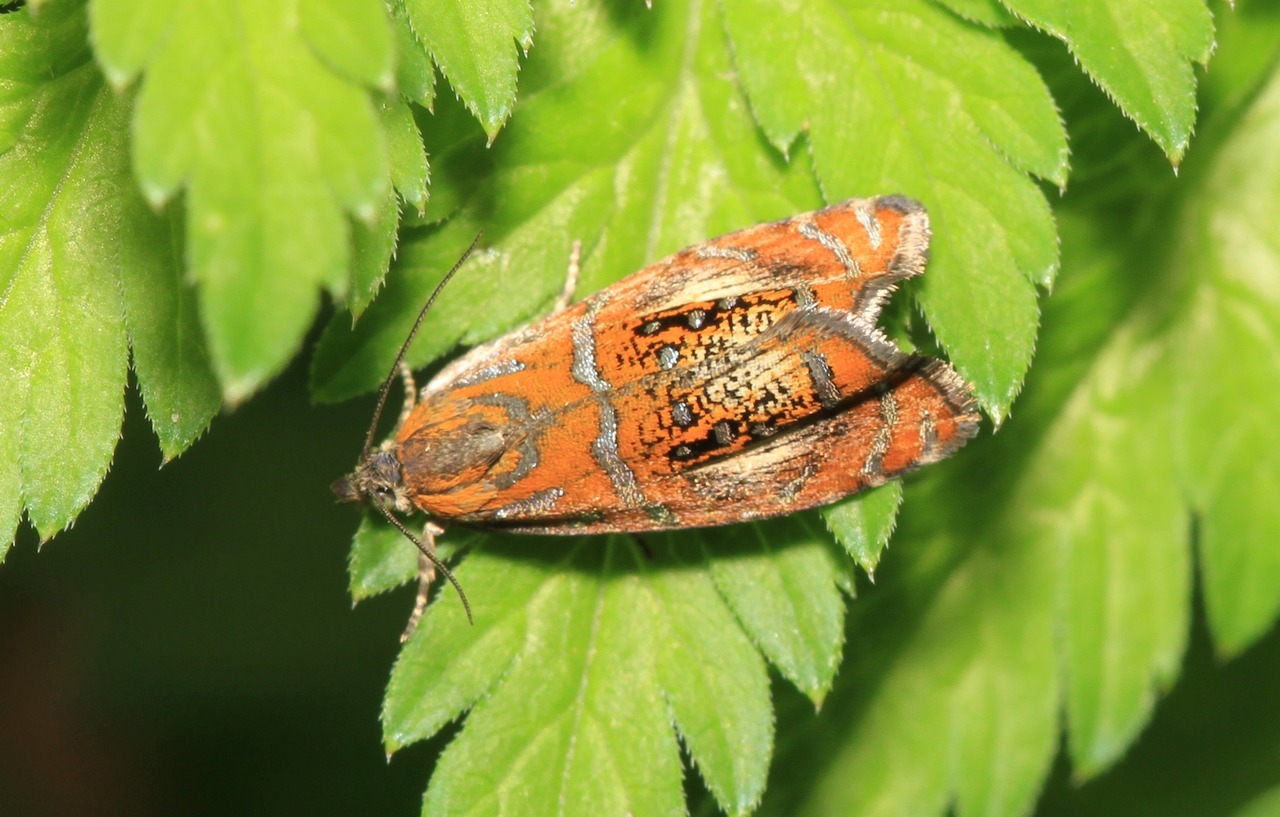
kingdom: Animalia
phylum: Arthropoda
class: Insecta
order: Lepidoptera
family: Tortricidae
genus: Olethreutes
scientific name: Olethreutes arcuella
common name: Arched marble
